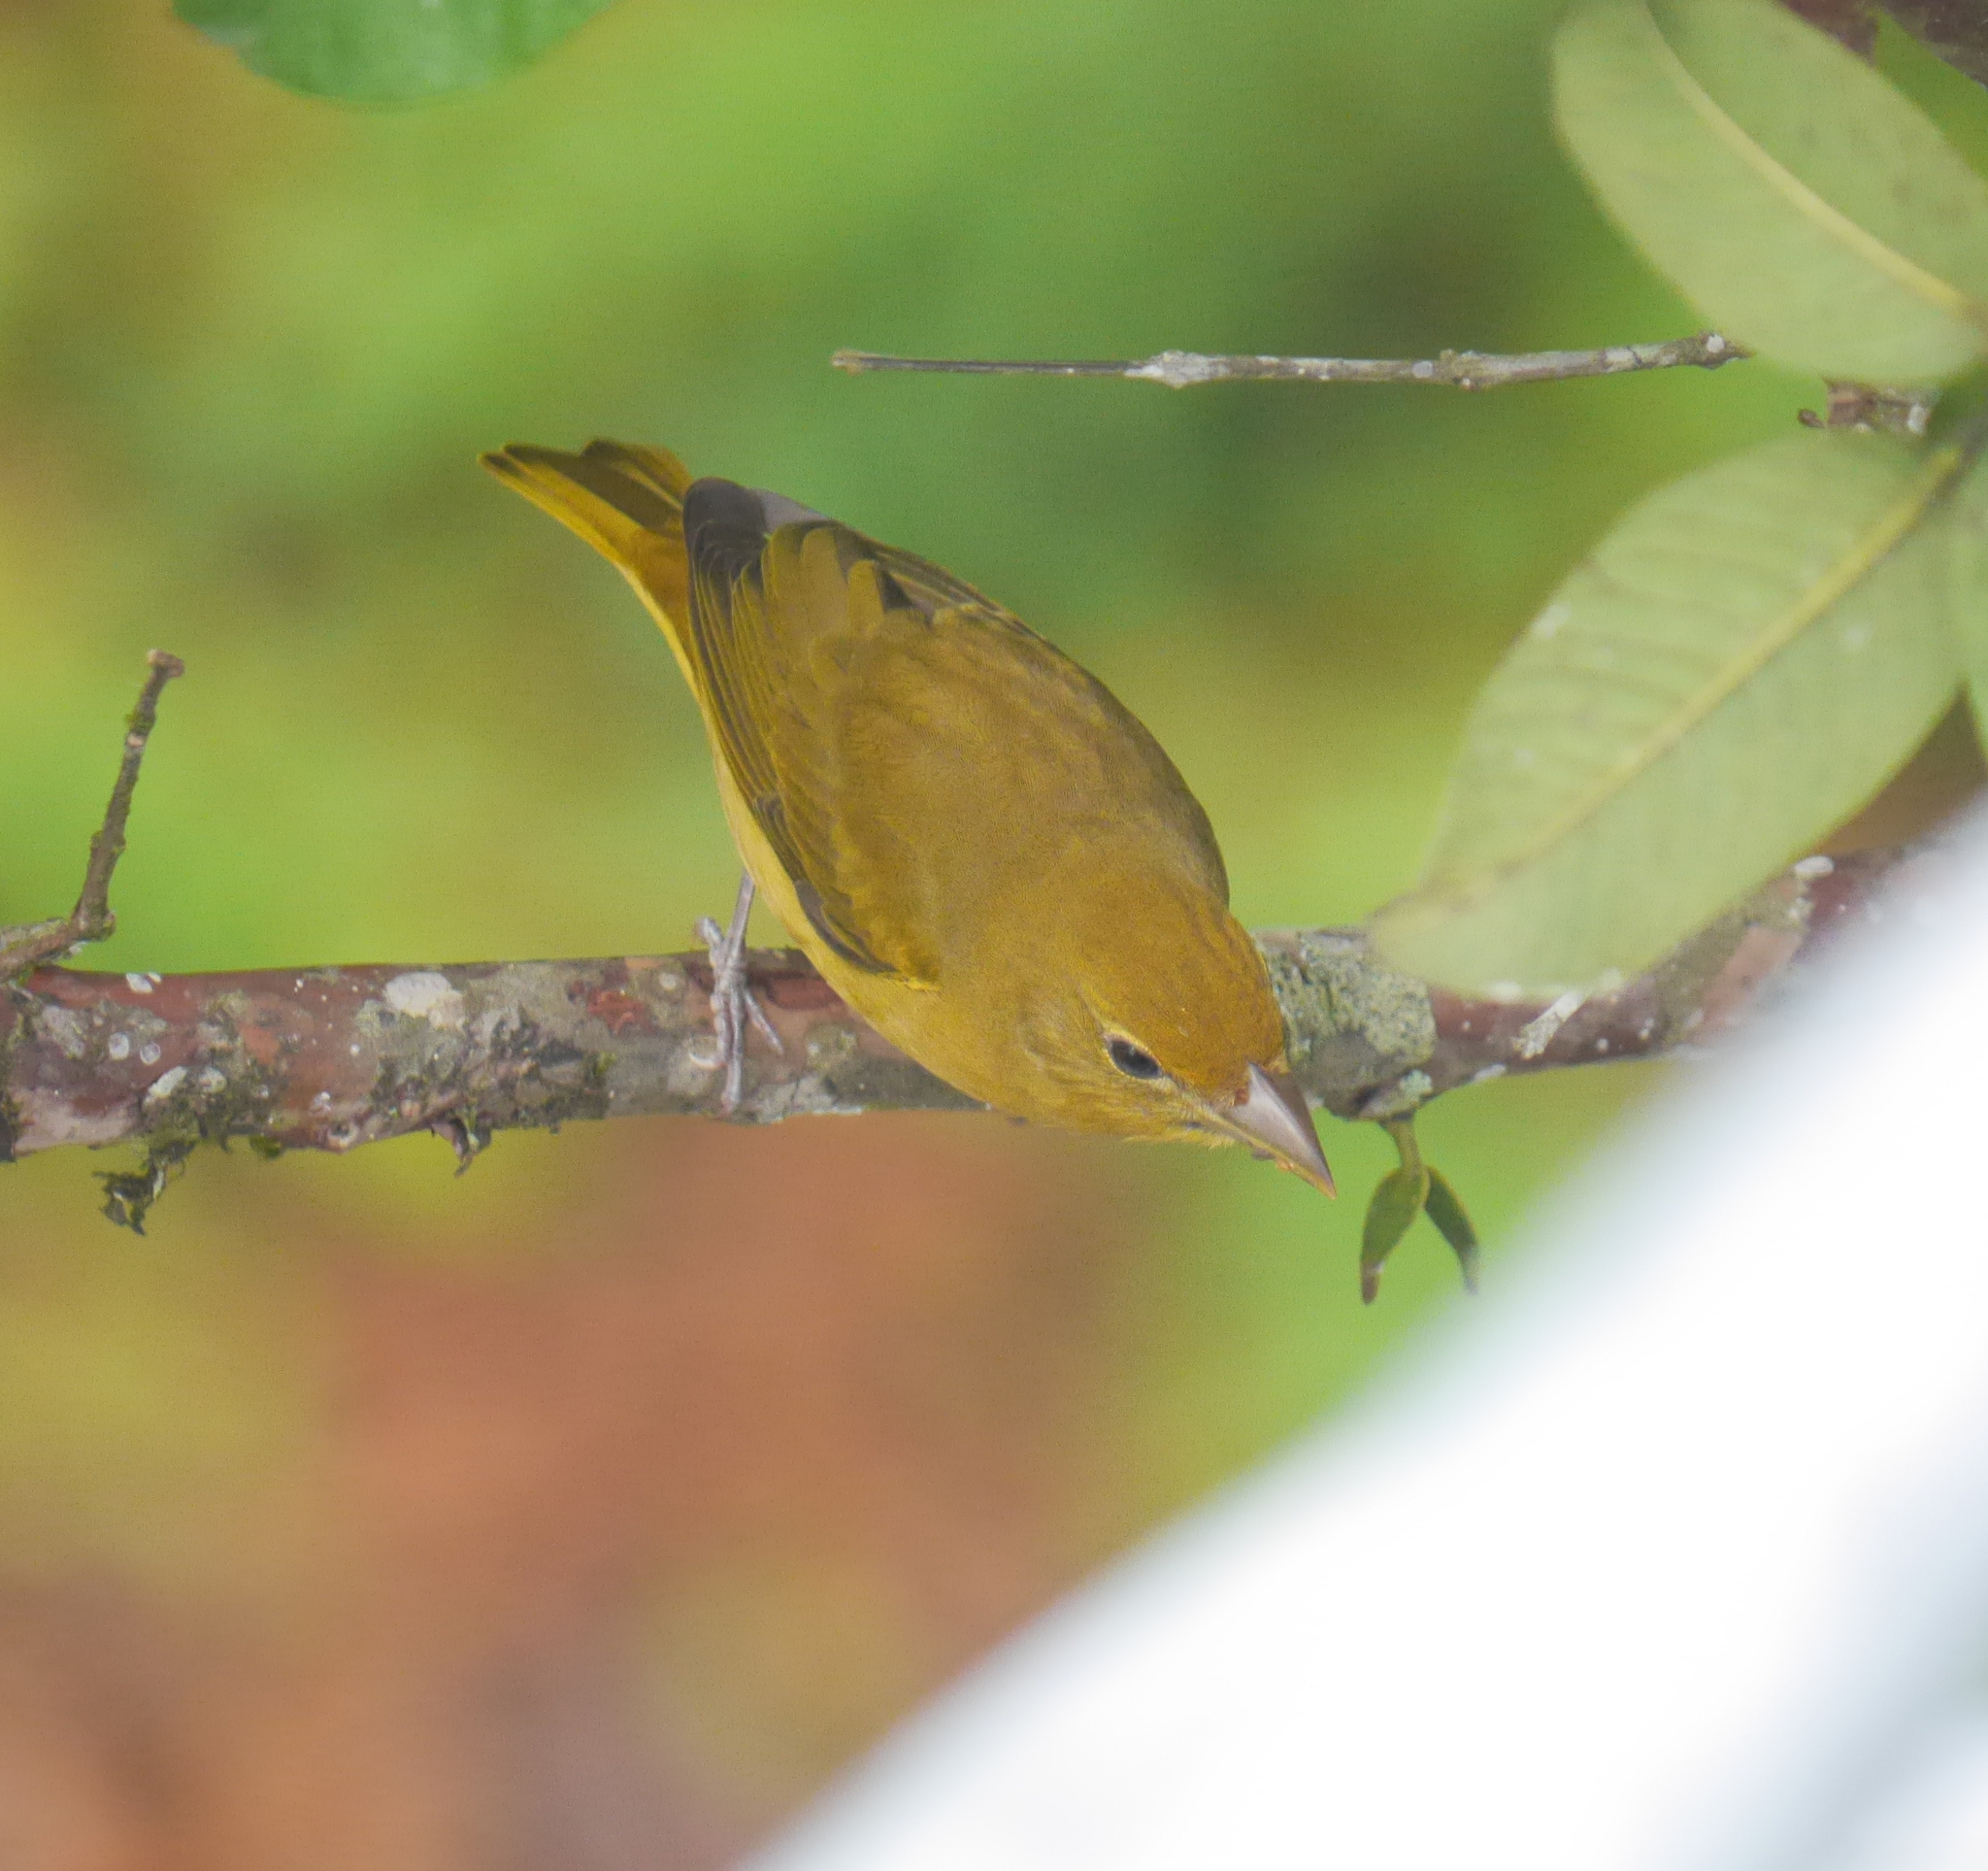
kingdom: Animalia
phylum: Chordata
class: Aves
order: Passeriformes
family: Cardinalidae
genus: Piranga
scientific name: Piranga rubra
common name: Summer tanager
